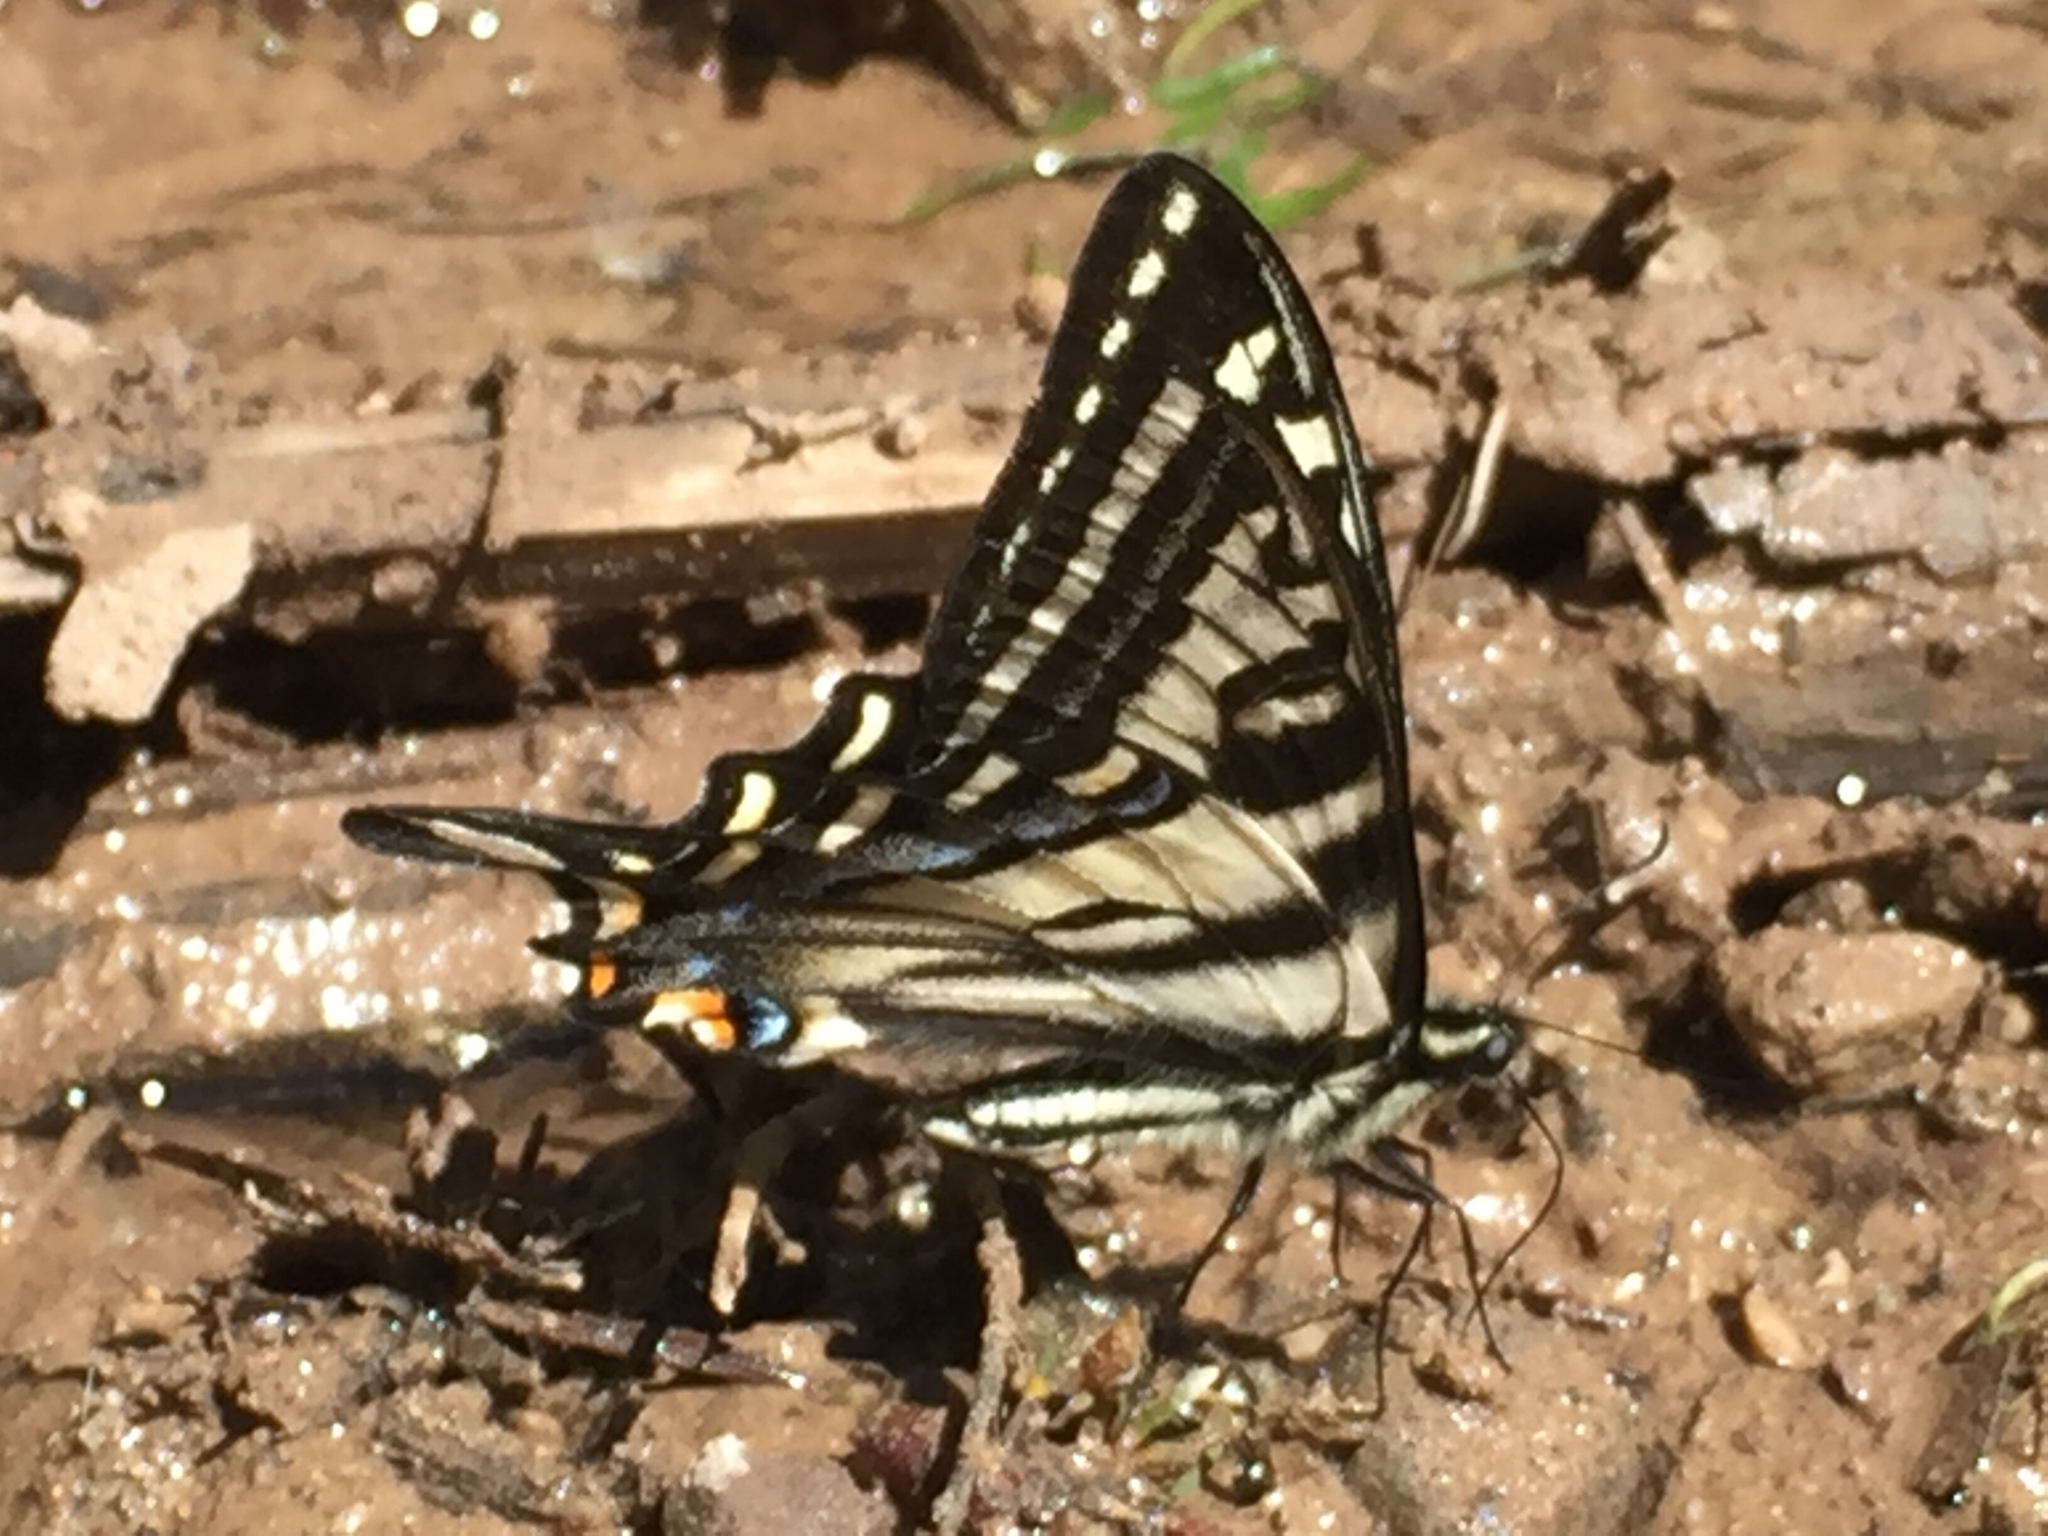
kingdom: Animalia
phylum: Arthropoda
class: Insecta
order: Lepidoptera
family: Papilionidae
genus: Papilio
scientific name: Papilio eurymedon
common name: Pale tiger swallowtail
